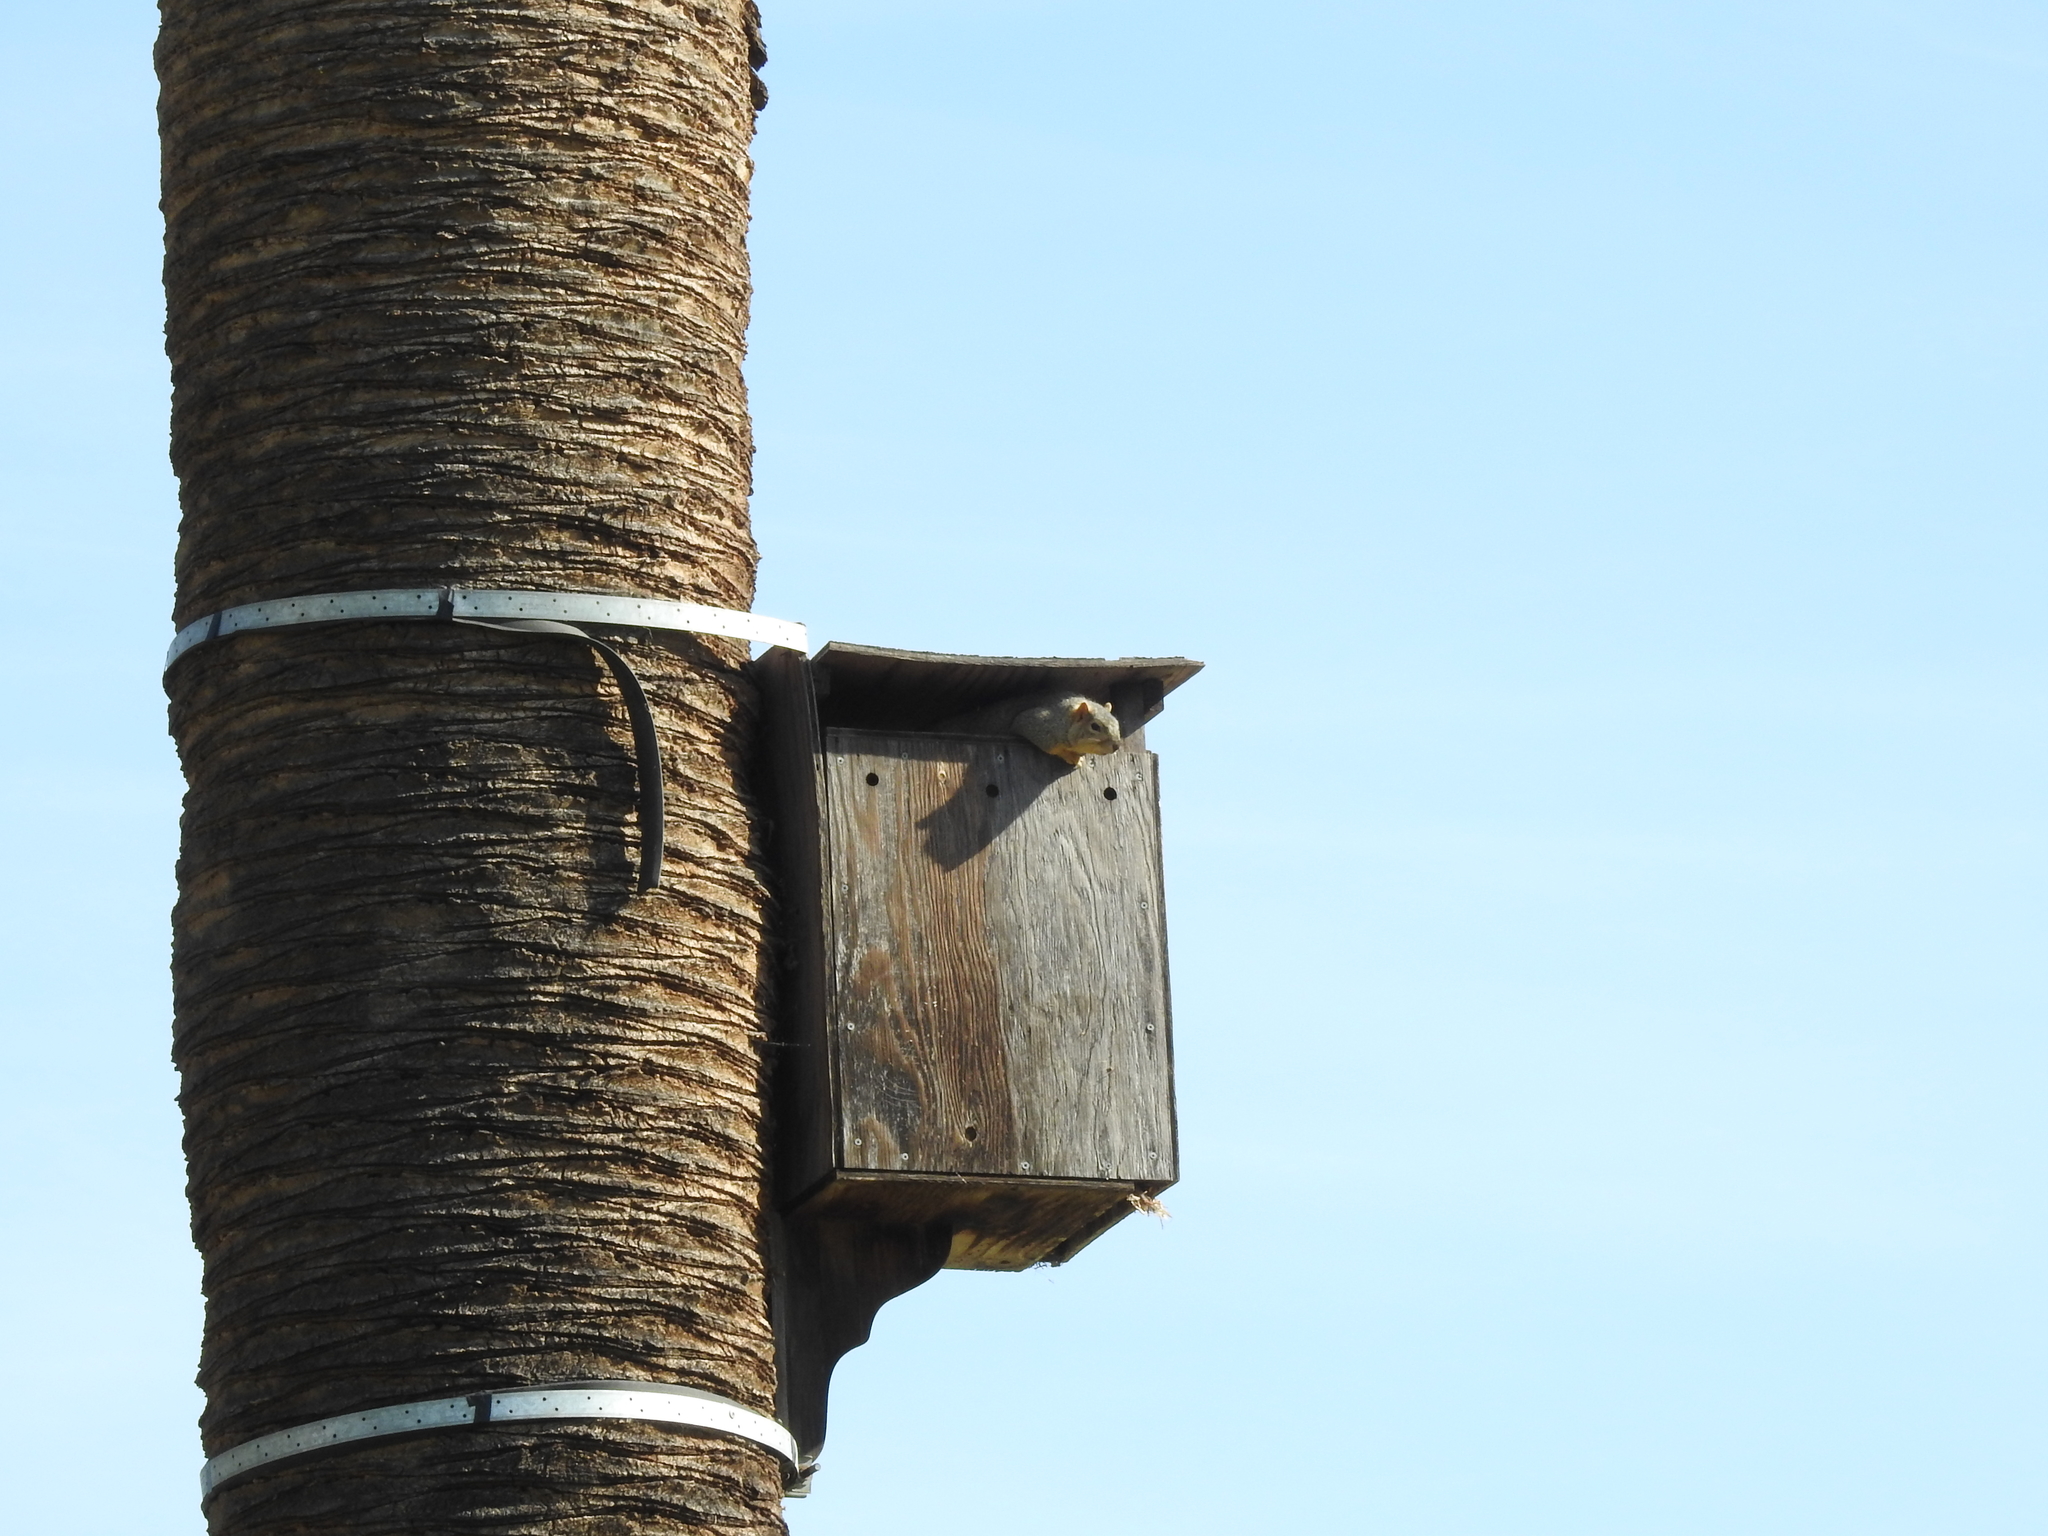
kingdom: Animalia
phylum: Chordata
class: Mammalia
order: Rodentia
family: Sciuridae
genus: Sciurus
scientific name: Sciurus niger
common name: Fox squirrel
